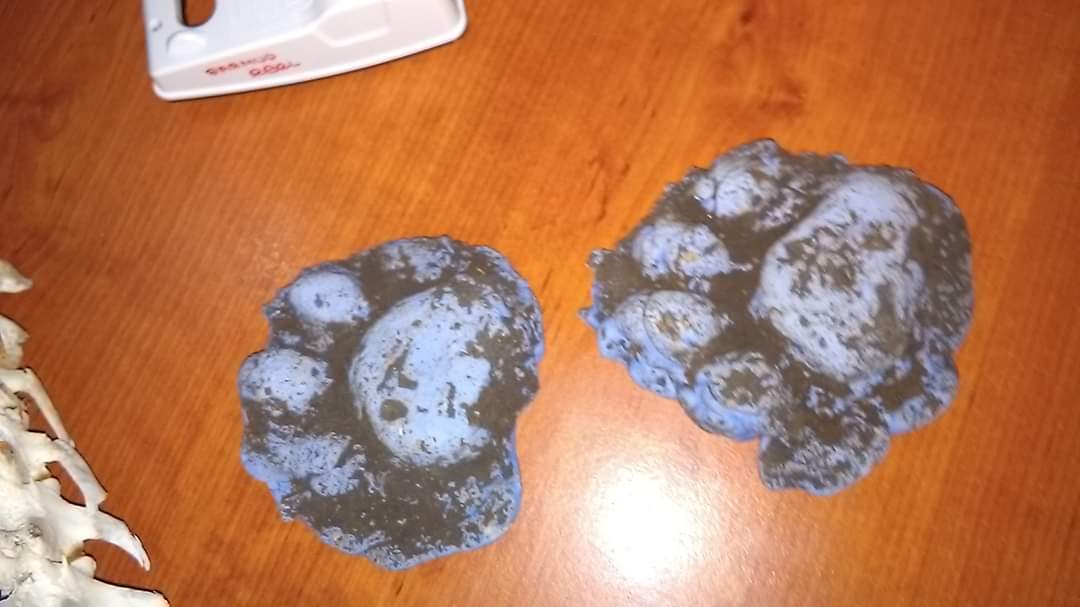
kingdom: Animalia
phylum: Chordata
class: Mammalia
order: Carnivora
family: Felidae
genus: Panthera
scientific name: Panthera onca
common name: Jaguar
